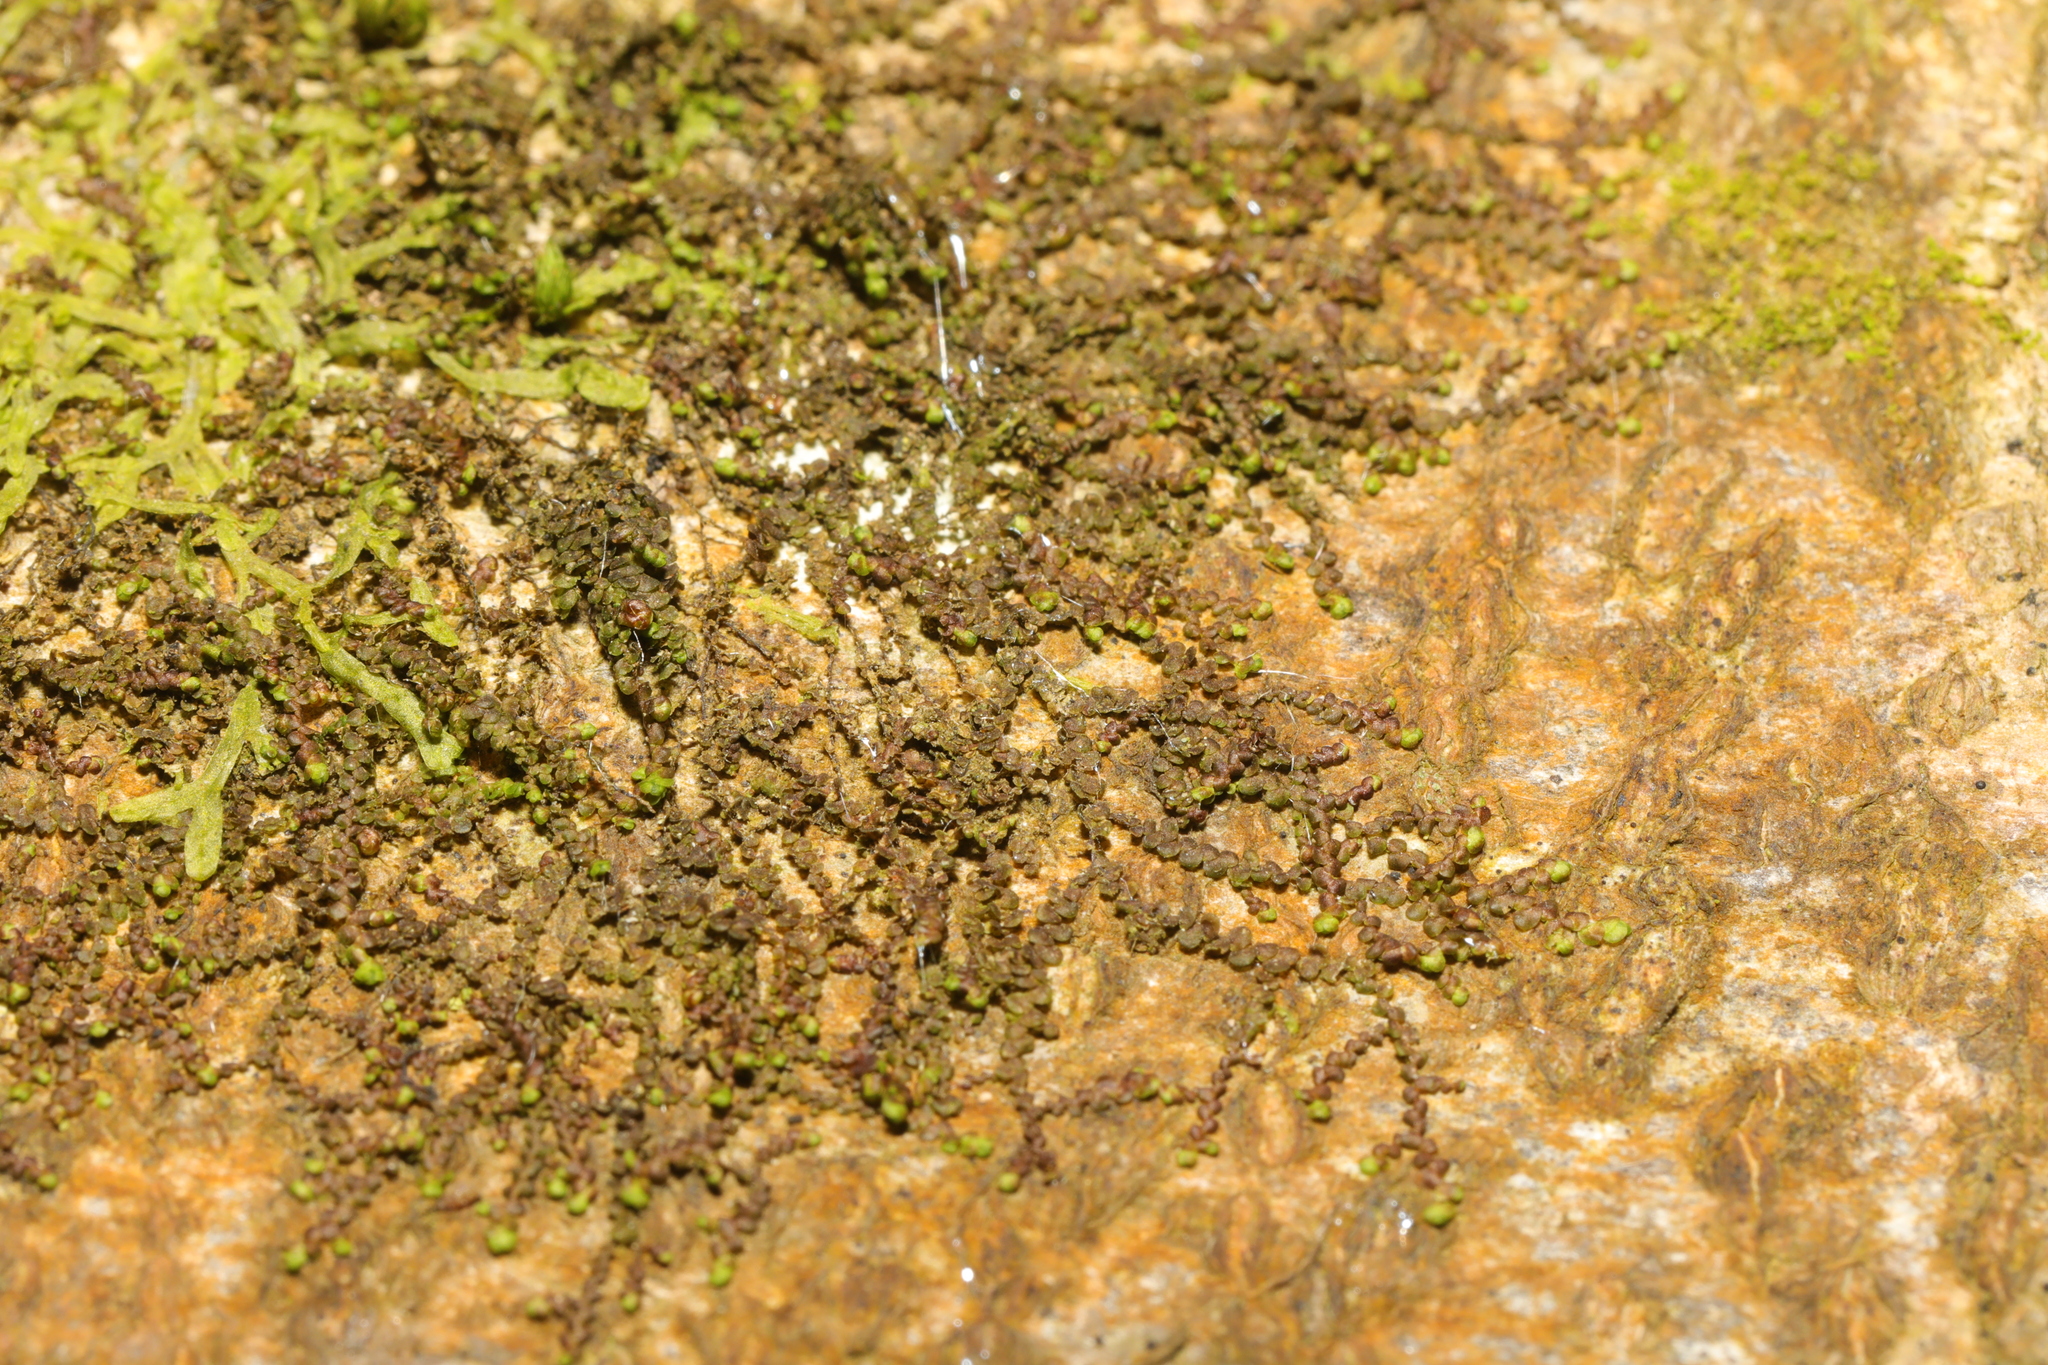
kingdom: Plantae
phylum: Marchantiophyta
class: Jungermanniopsida
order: Porellales
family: Frullaniaceae
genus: Frullania
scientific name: Frullania dilatata
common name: Dilated scalewort
